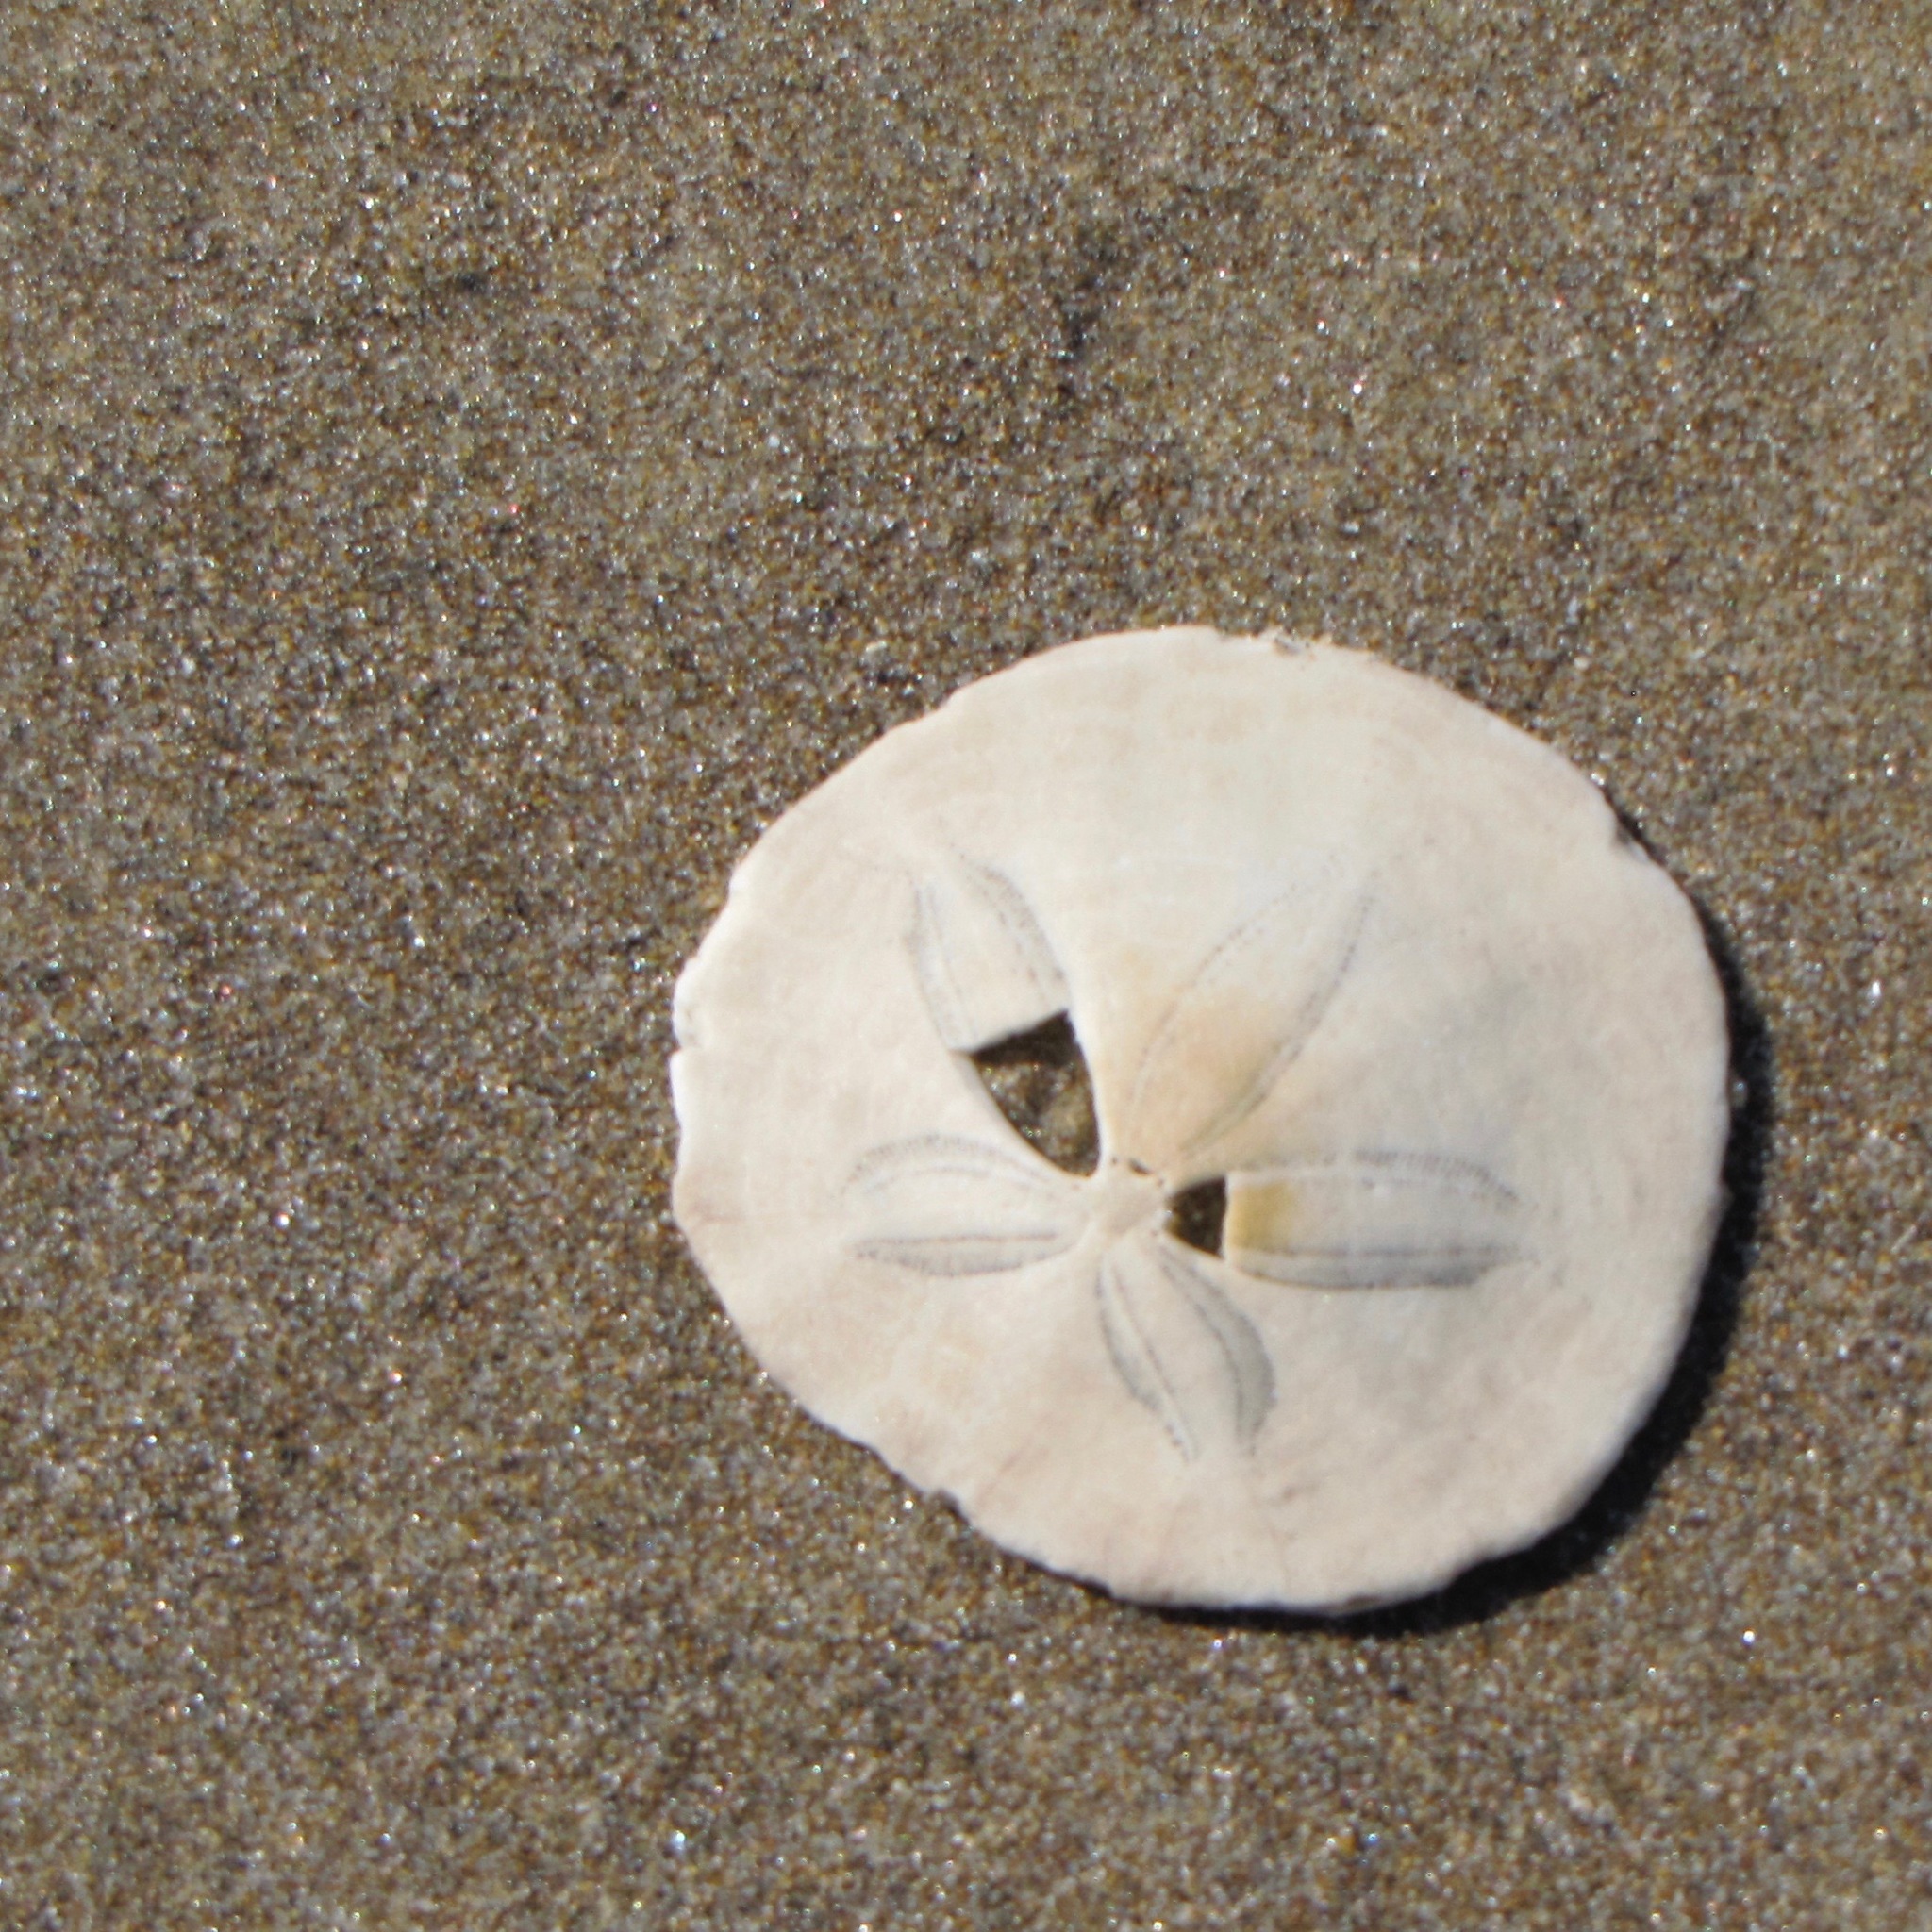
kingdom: Animalia
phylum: Echinodermata
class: Echinoidea
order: Echinolampadacea
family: Dendrasteridae
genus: Dendraster
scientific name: Dendraster excentricus
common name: Eccentric sand dollar sea urchin
